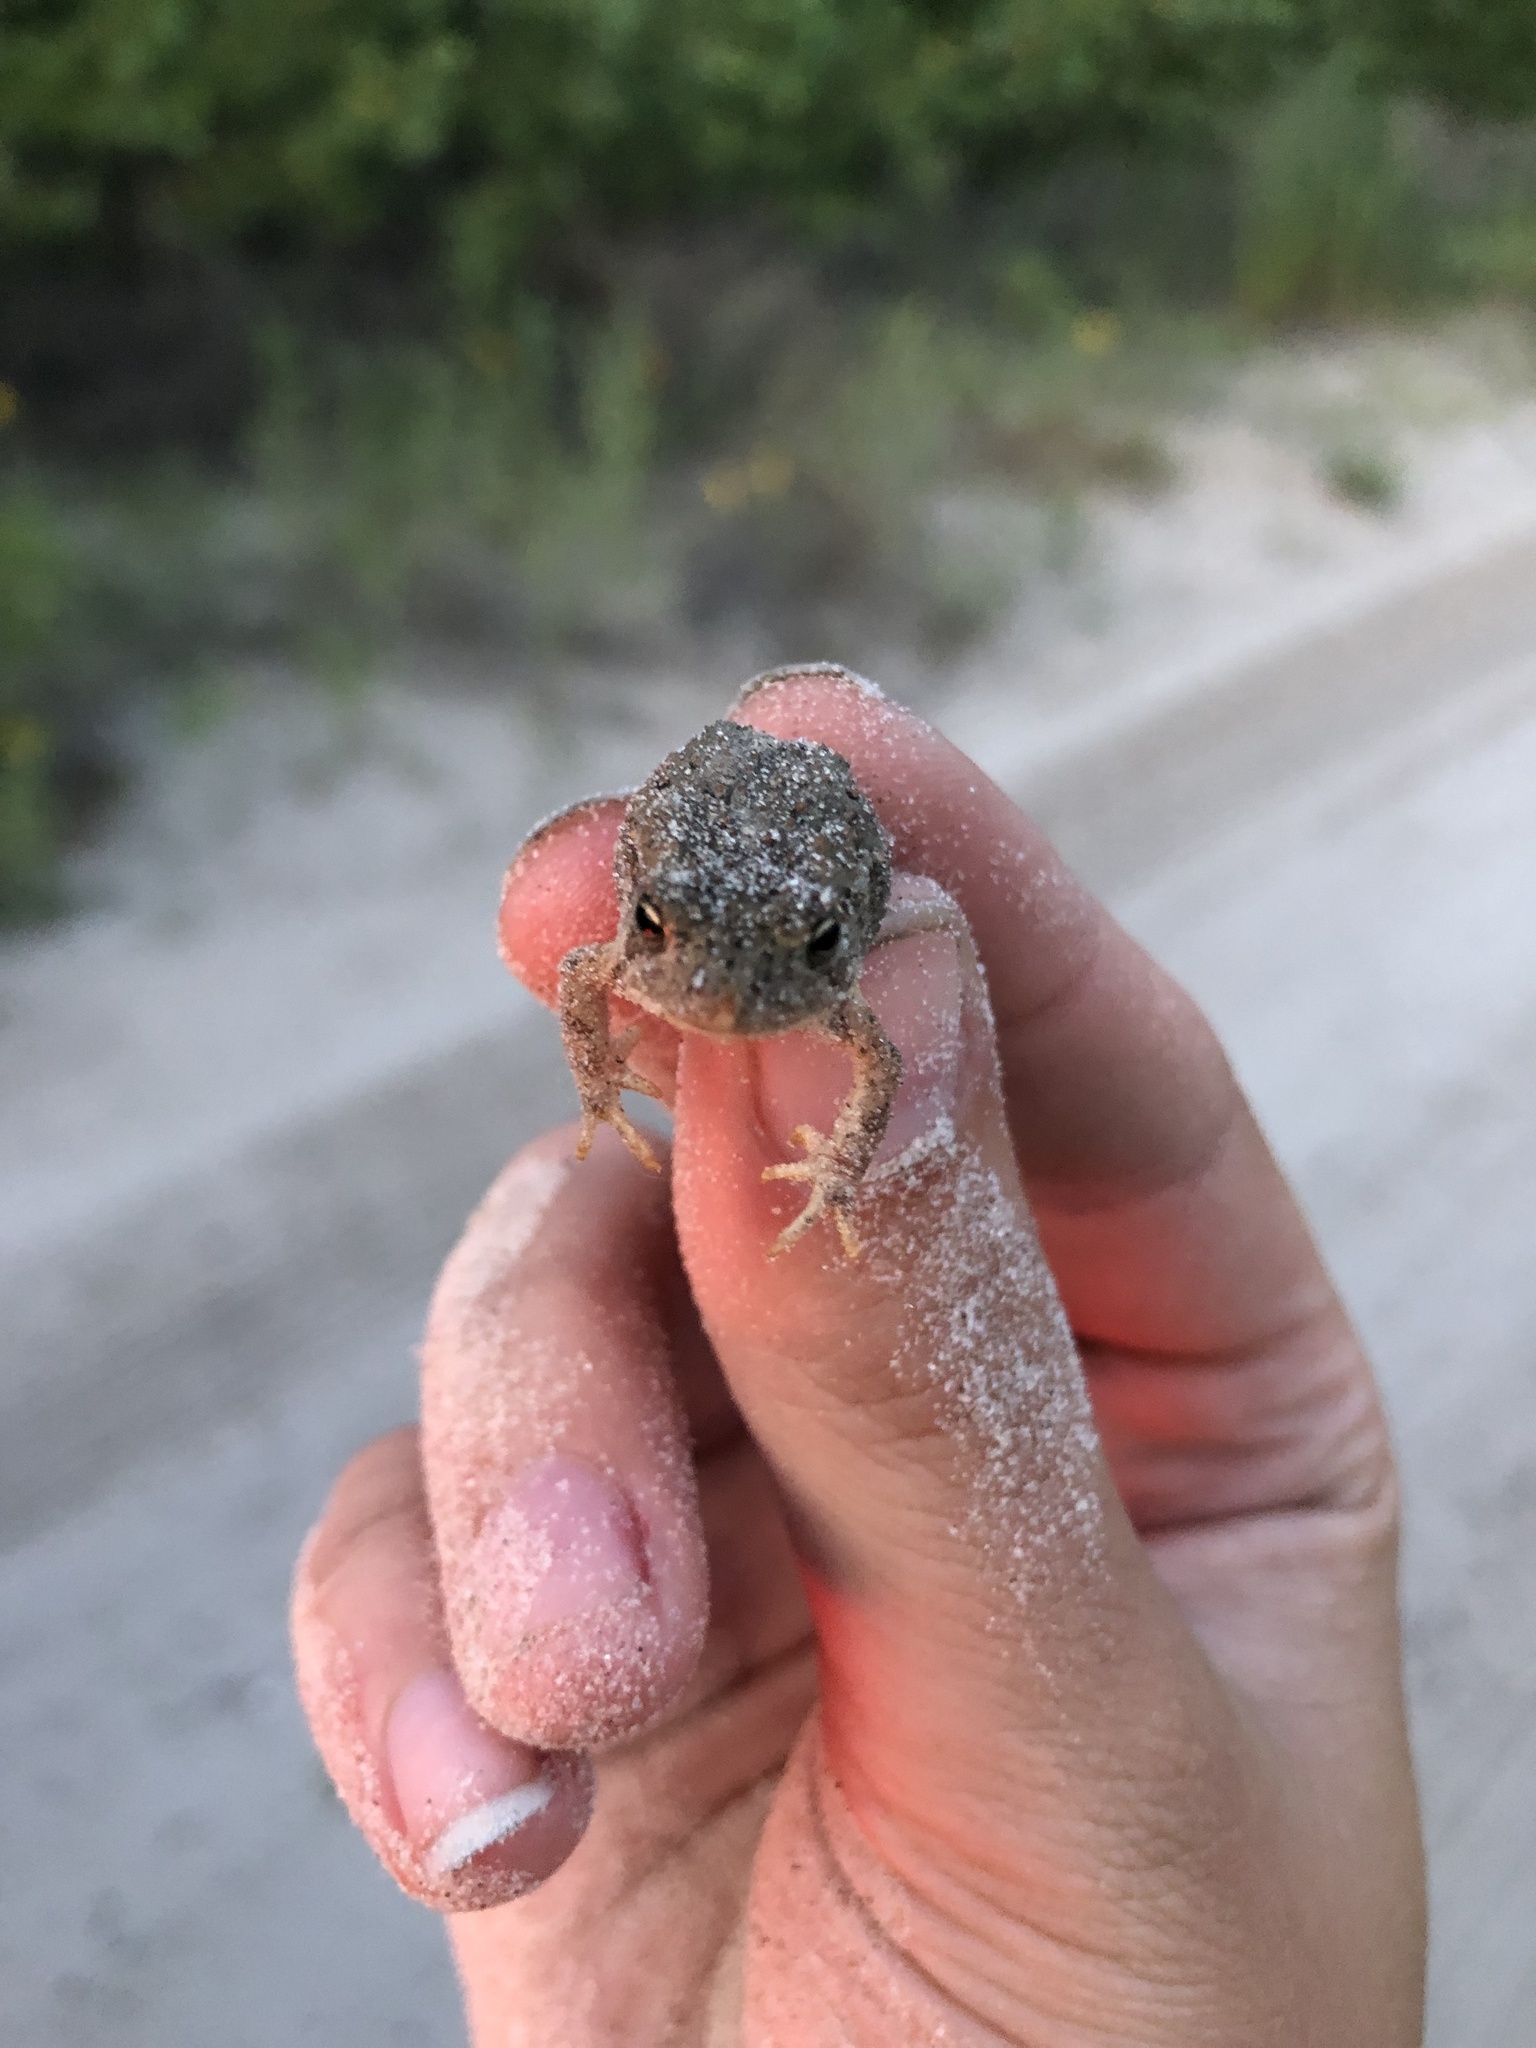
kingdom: Animalia
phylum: Chordata
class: Amphibia
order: Anura
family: Bufonidae
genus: Anaxyrus
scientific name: Anaxyrus woodhousii
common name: Woodhouse's toad
